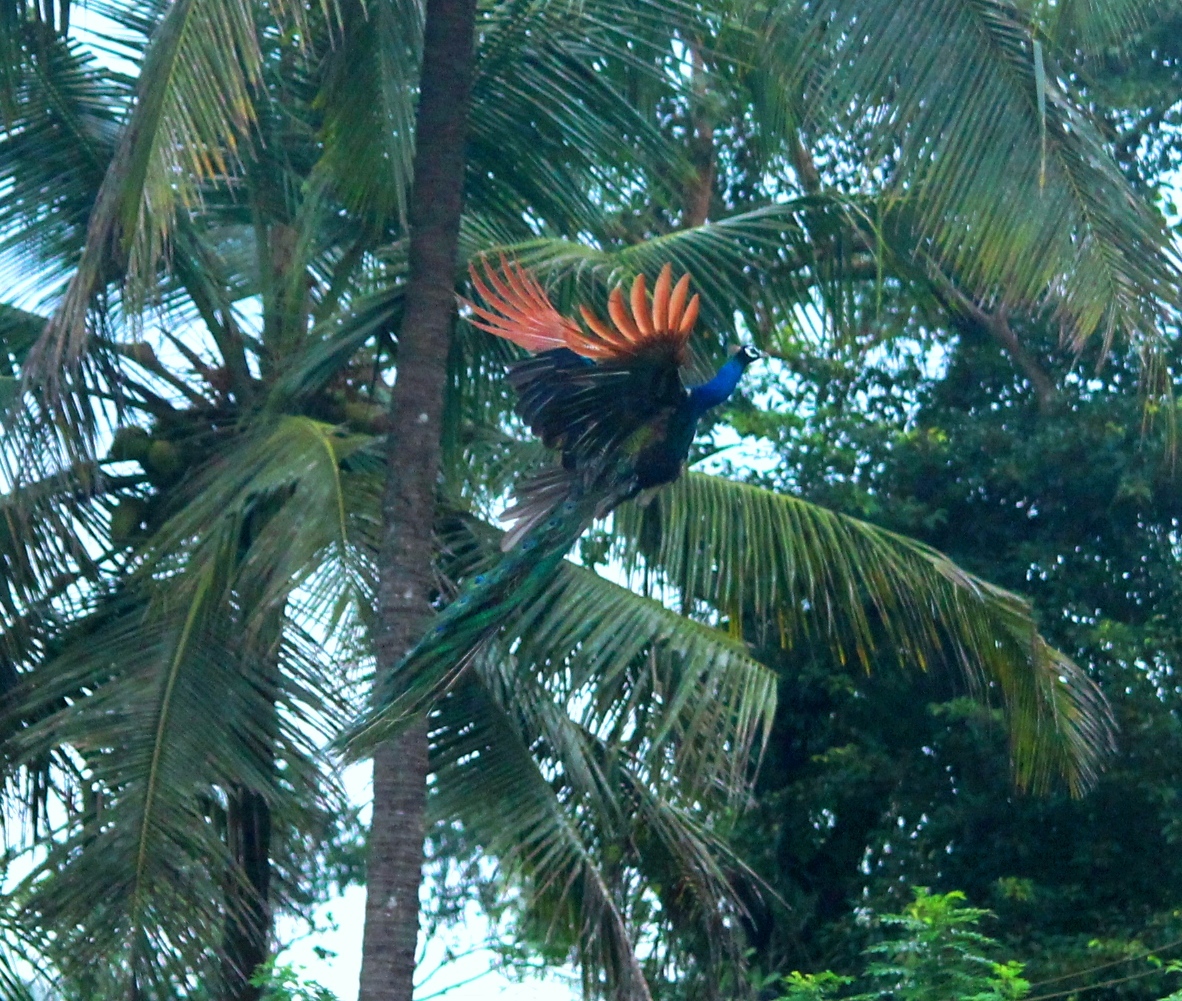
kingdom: Animalia
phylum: Chordata
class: Aves
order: Galliformes
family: Phasianidae
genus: Pavo
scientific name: Pavo cristatus
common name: Indian peafowl
